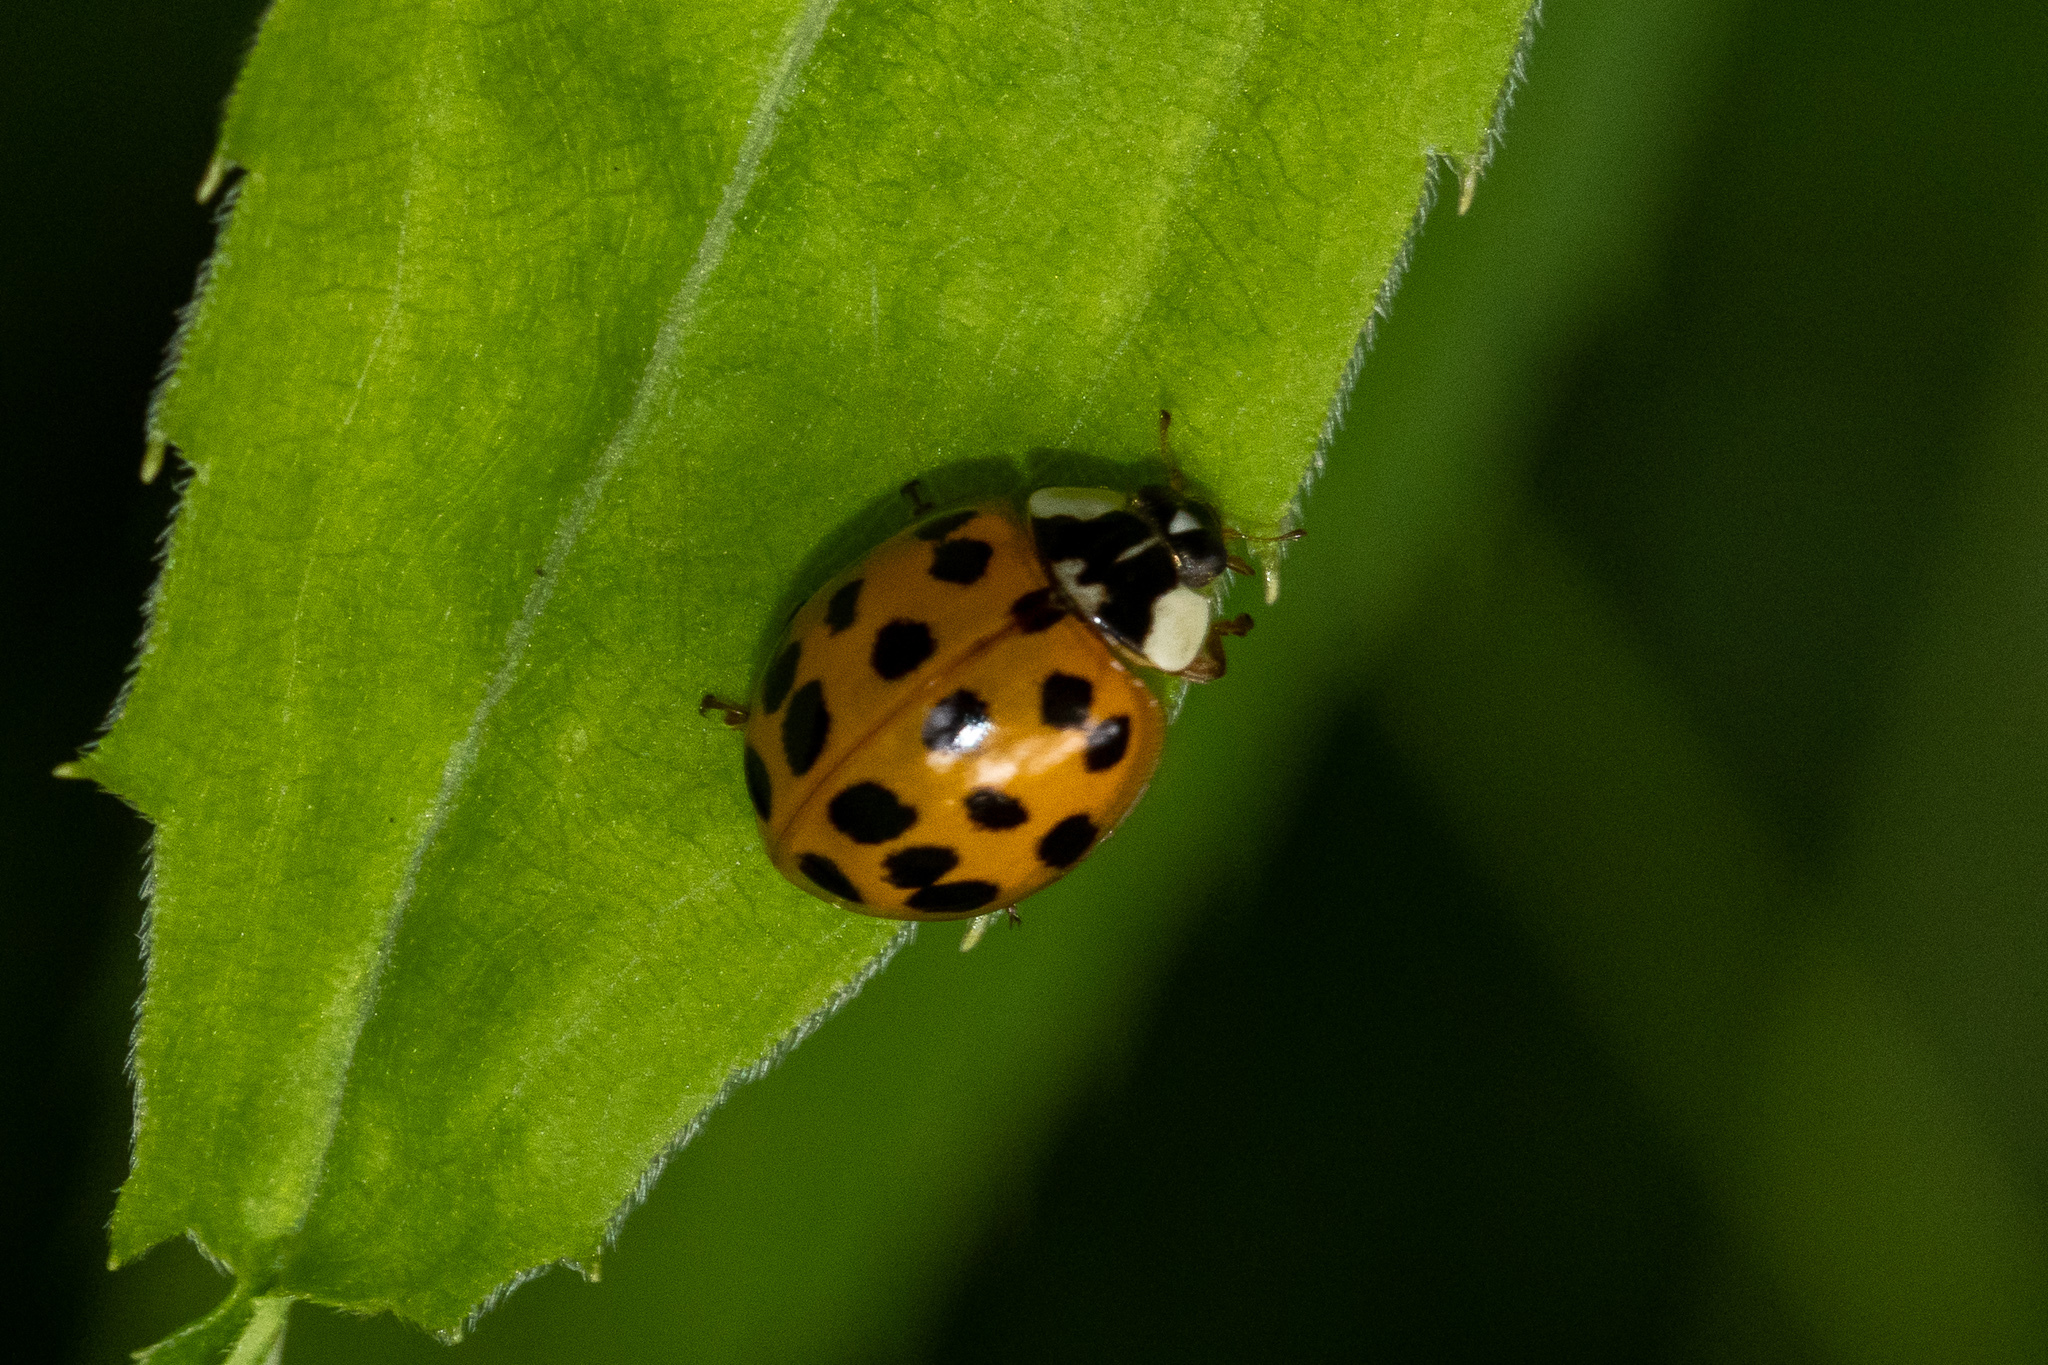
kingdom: Animalia
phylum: Arthropoda
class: Insecta
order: Coleoptera
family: Coccinellidae
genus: Harmonia
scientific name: Harmonia axyridis
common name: Harlequin ladybird
